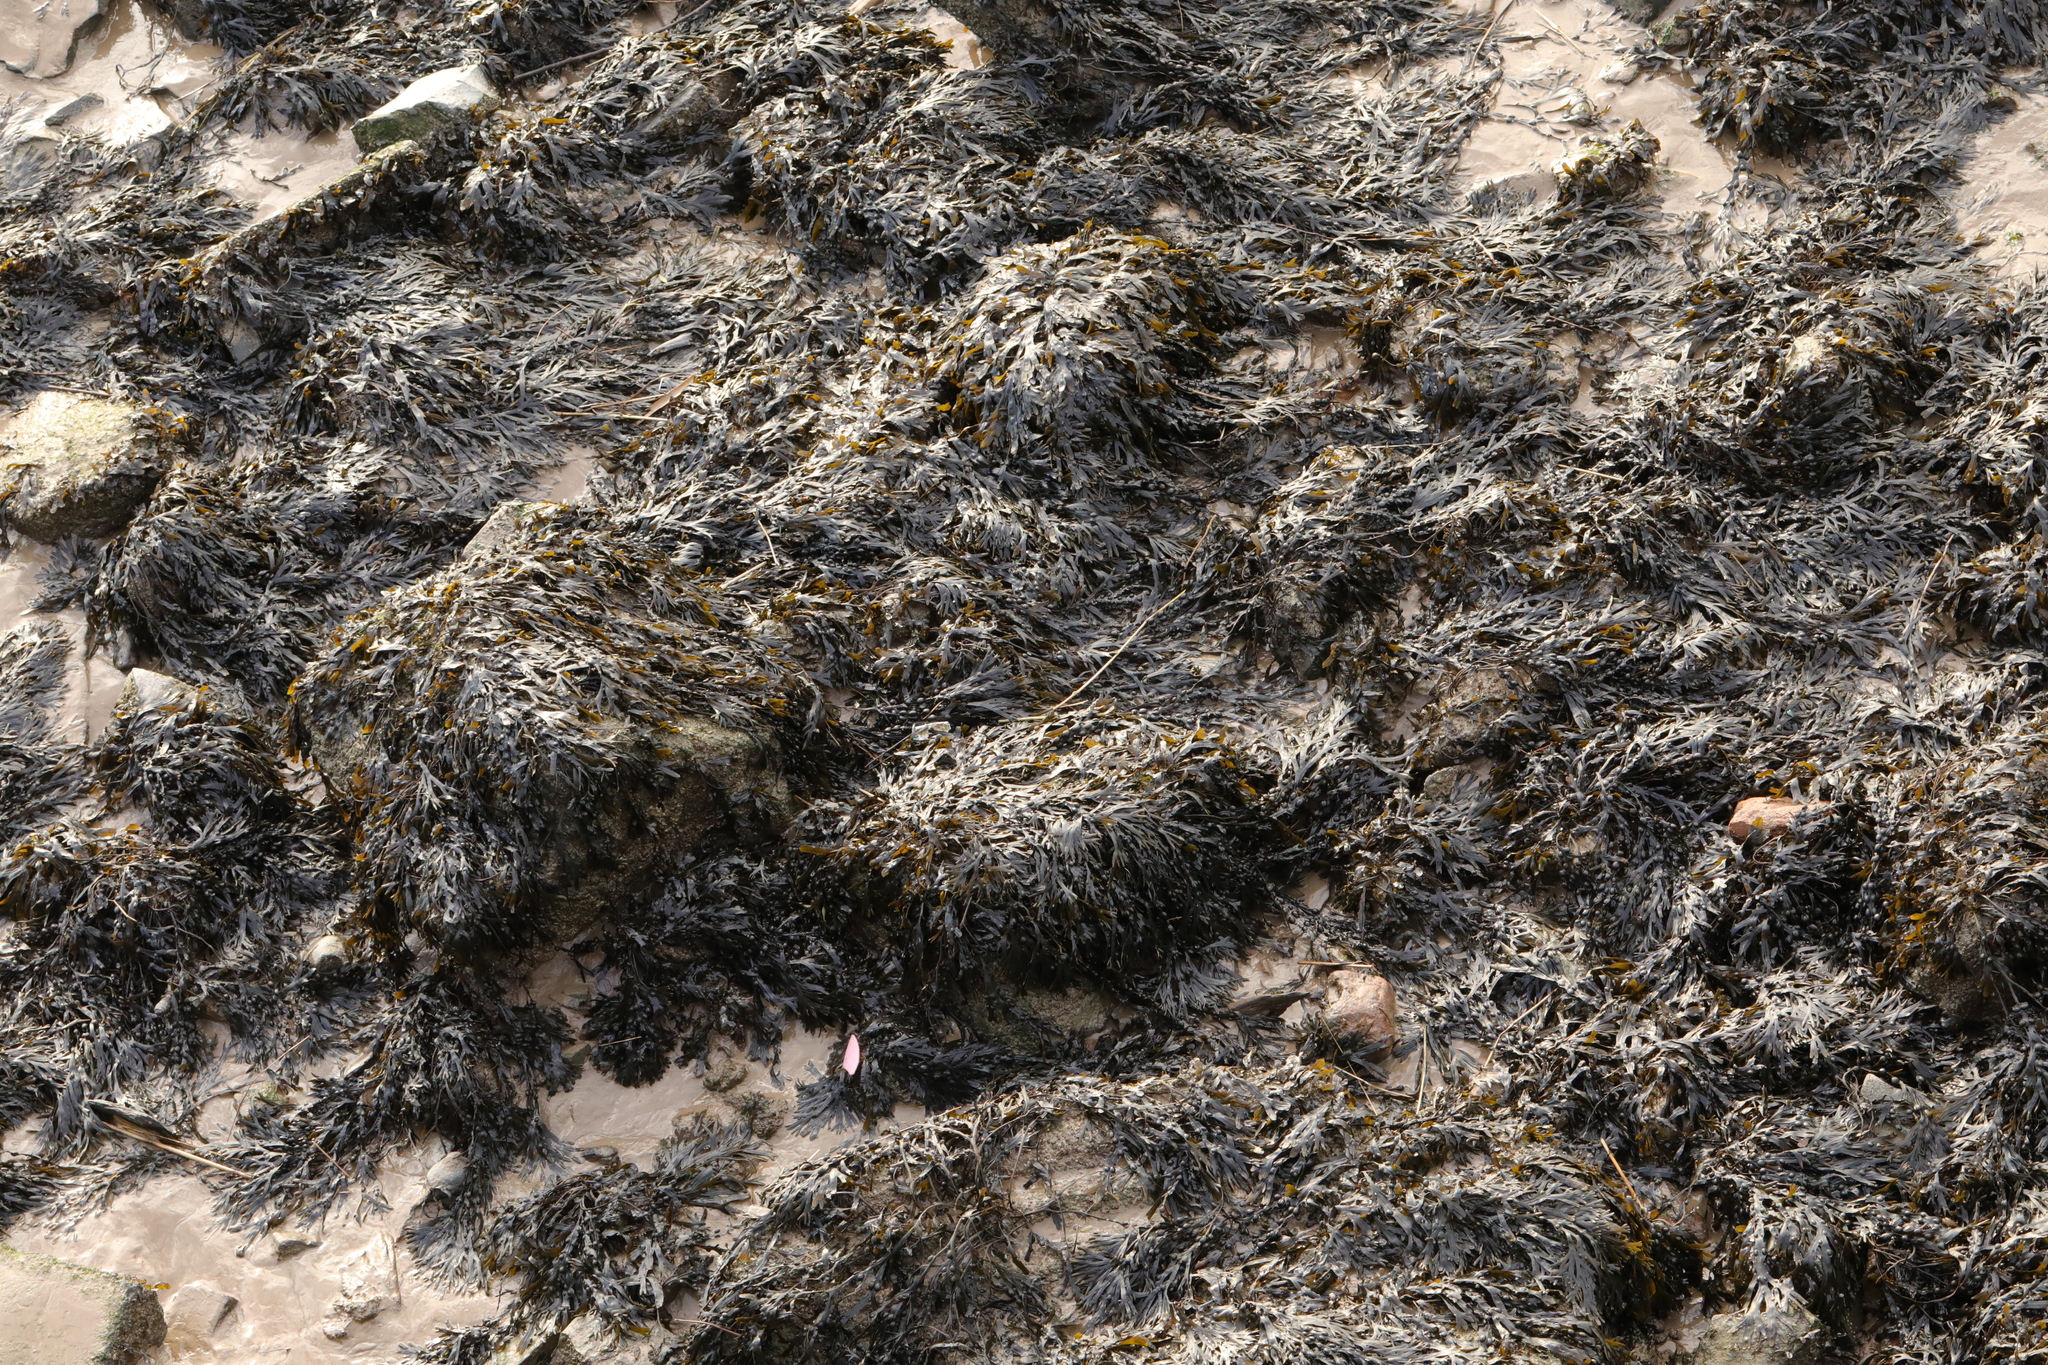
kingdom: Chromista
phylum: Ochrophyta
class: Phaeophyceae
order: Fucales
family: Fucaceae
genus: Fucus
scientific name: Fucus vesiculosus
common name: Bladder wrack
